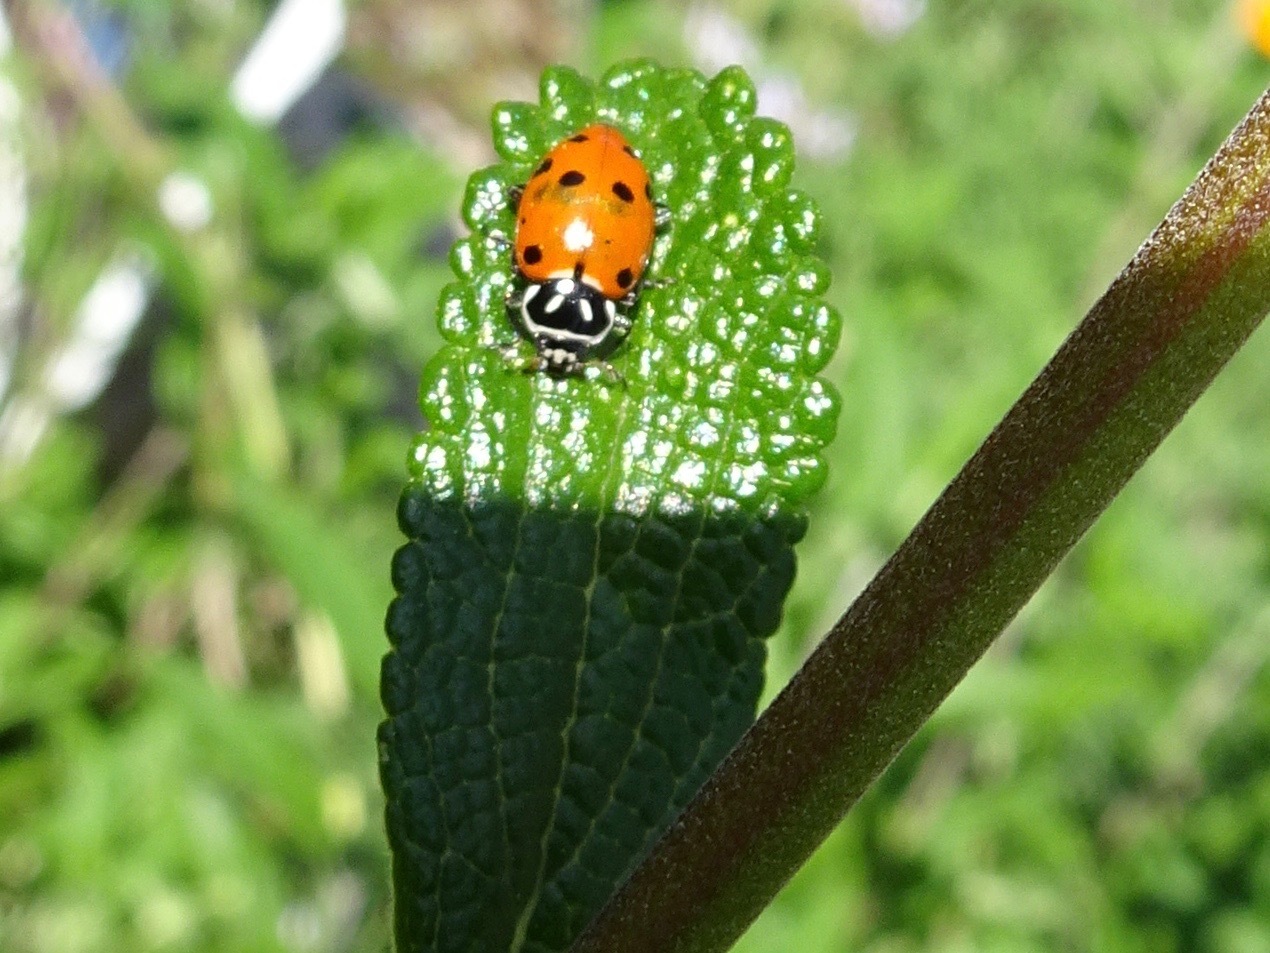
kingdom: Animalia
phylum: Arthropoda
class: Insecta
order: Coleoptera
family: Coccinellidae
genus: Hippodamia
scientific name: Hippodamia convergens
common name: Convergent lady beetle
